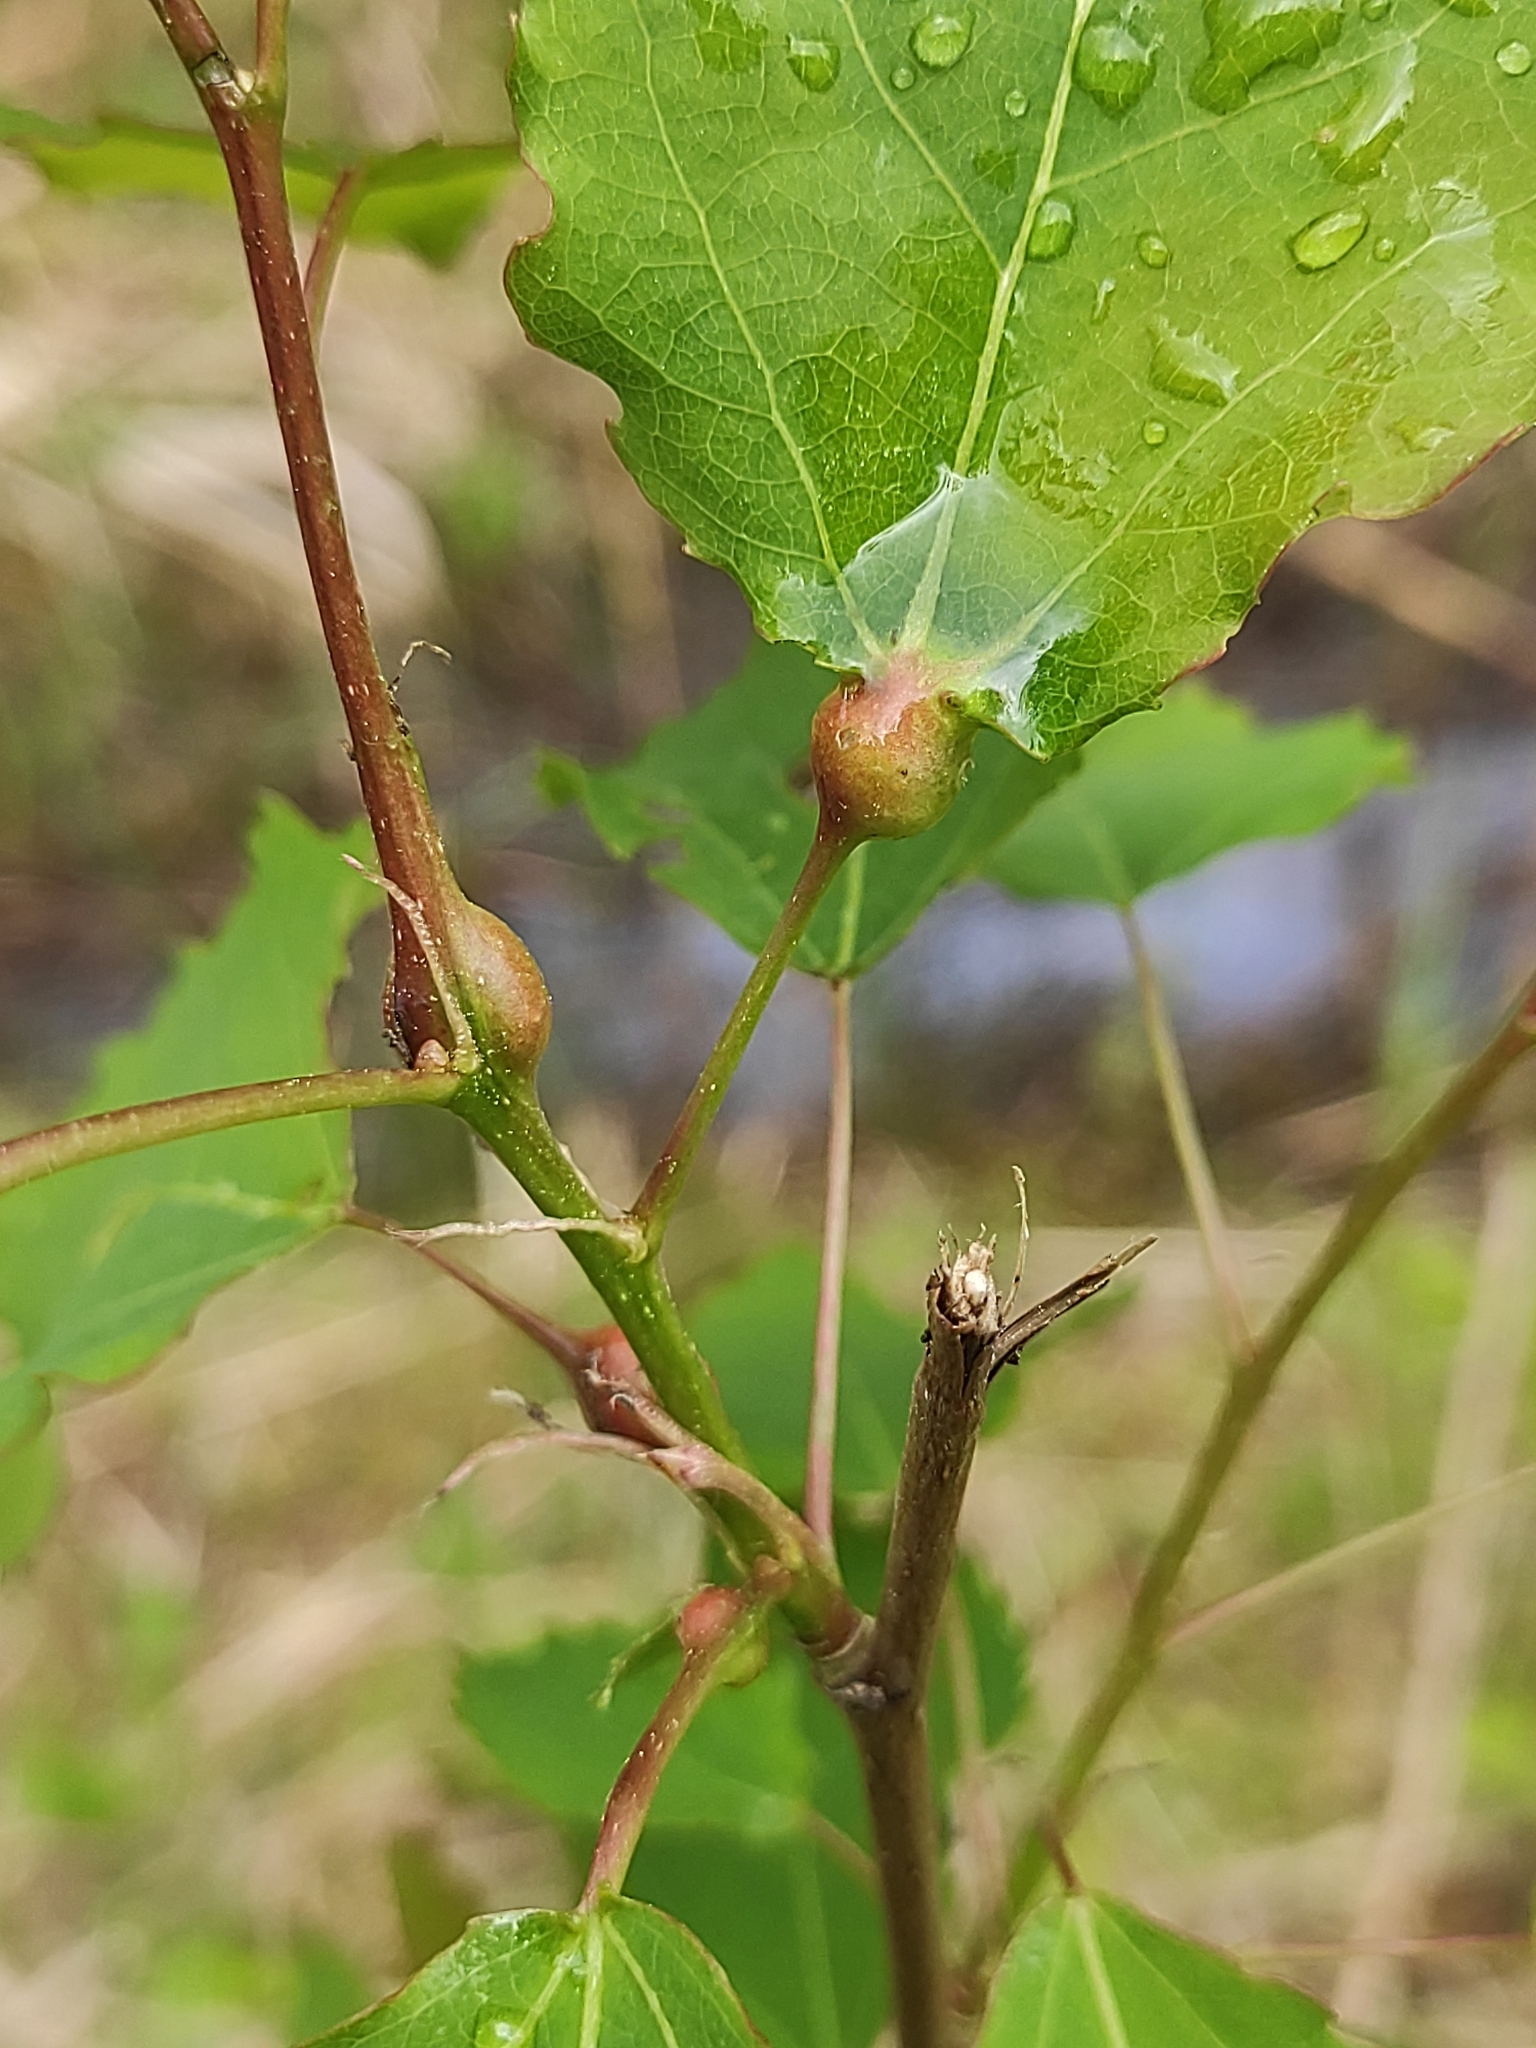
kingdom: Animalia
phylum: Arthropoda
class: Insecta
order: Diptera
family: Cecidomyiidae
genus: Contarinia
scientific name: Contarinia petioli
